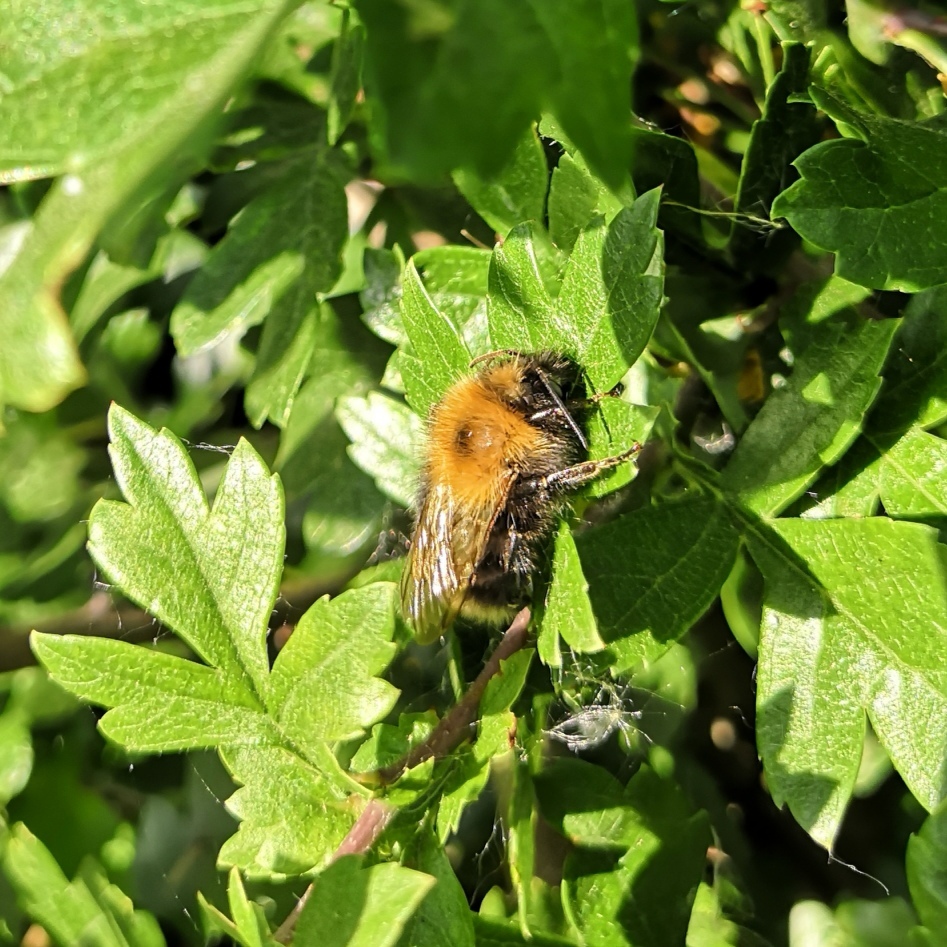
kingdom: Animalia
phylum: Arthropoda
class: Insecta
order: Hymenoptera
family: Apidae
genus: Bombus
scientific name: Bombus hypnorum
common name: New garden bumblebee
